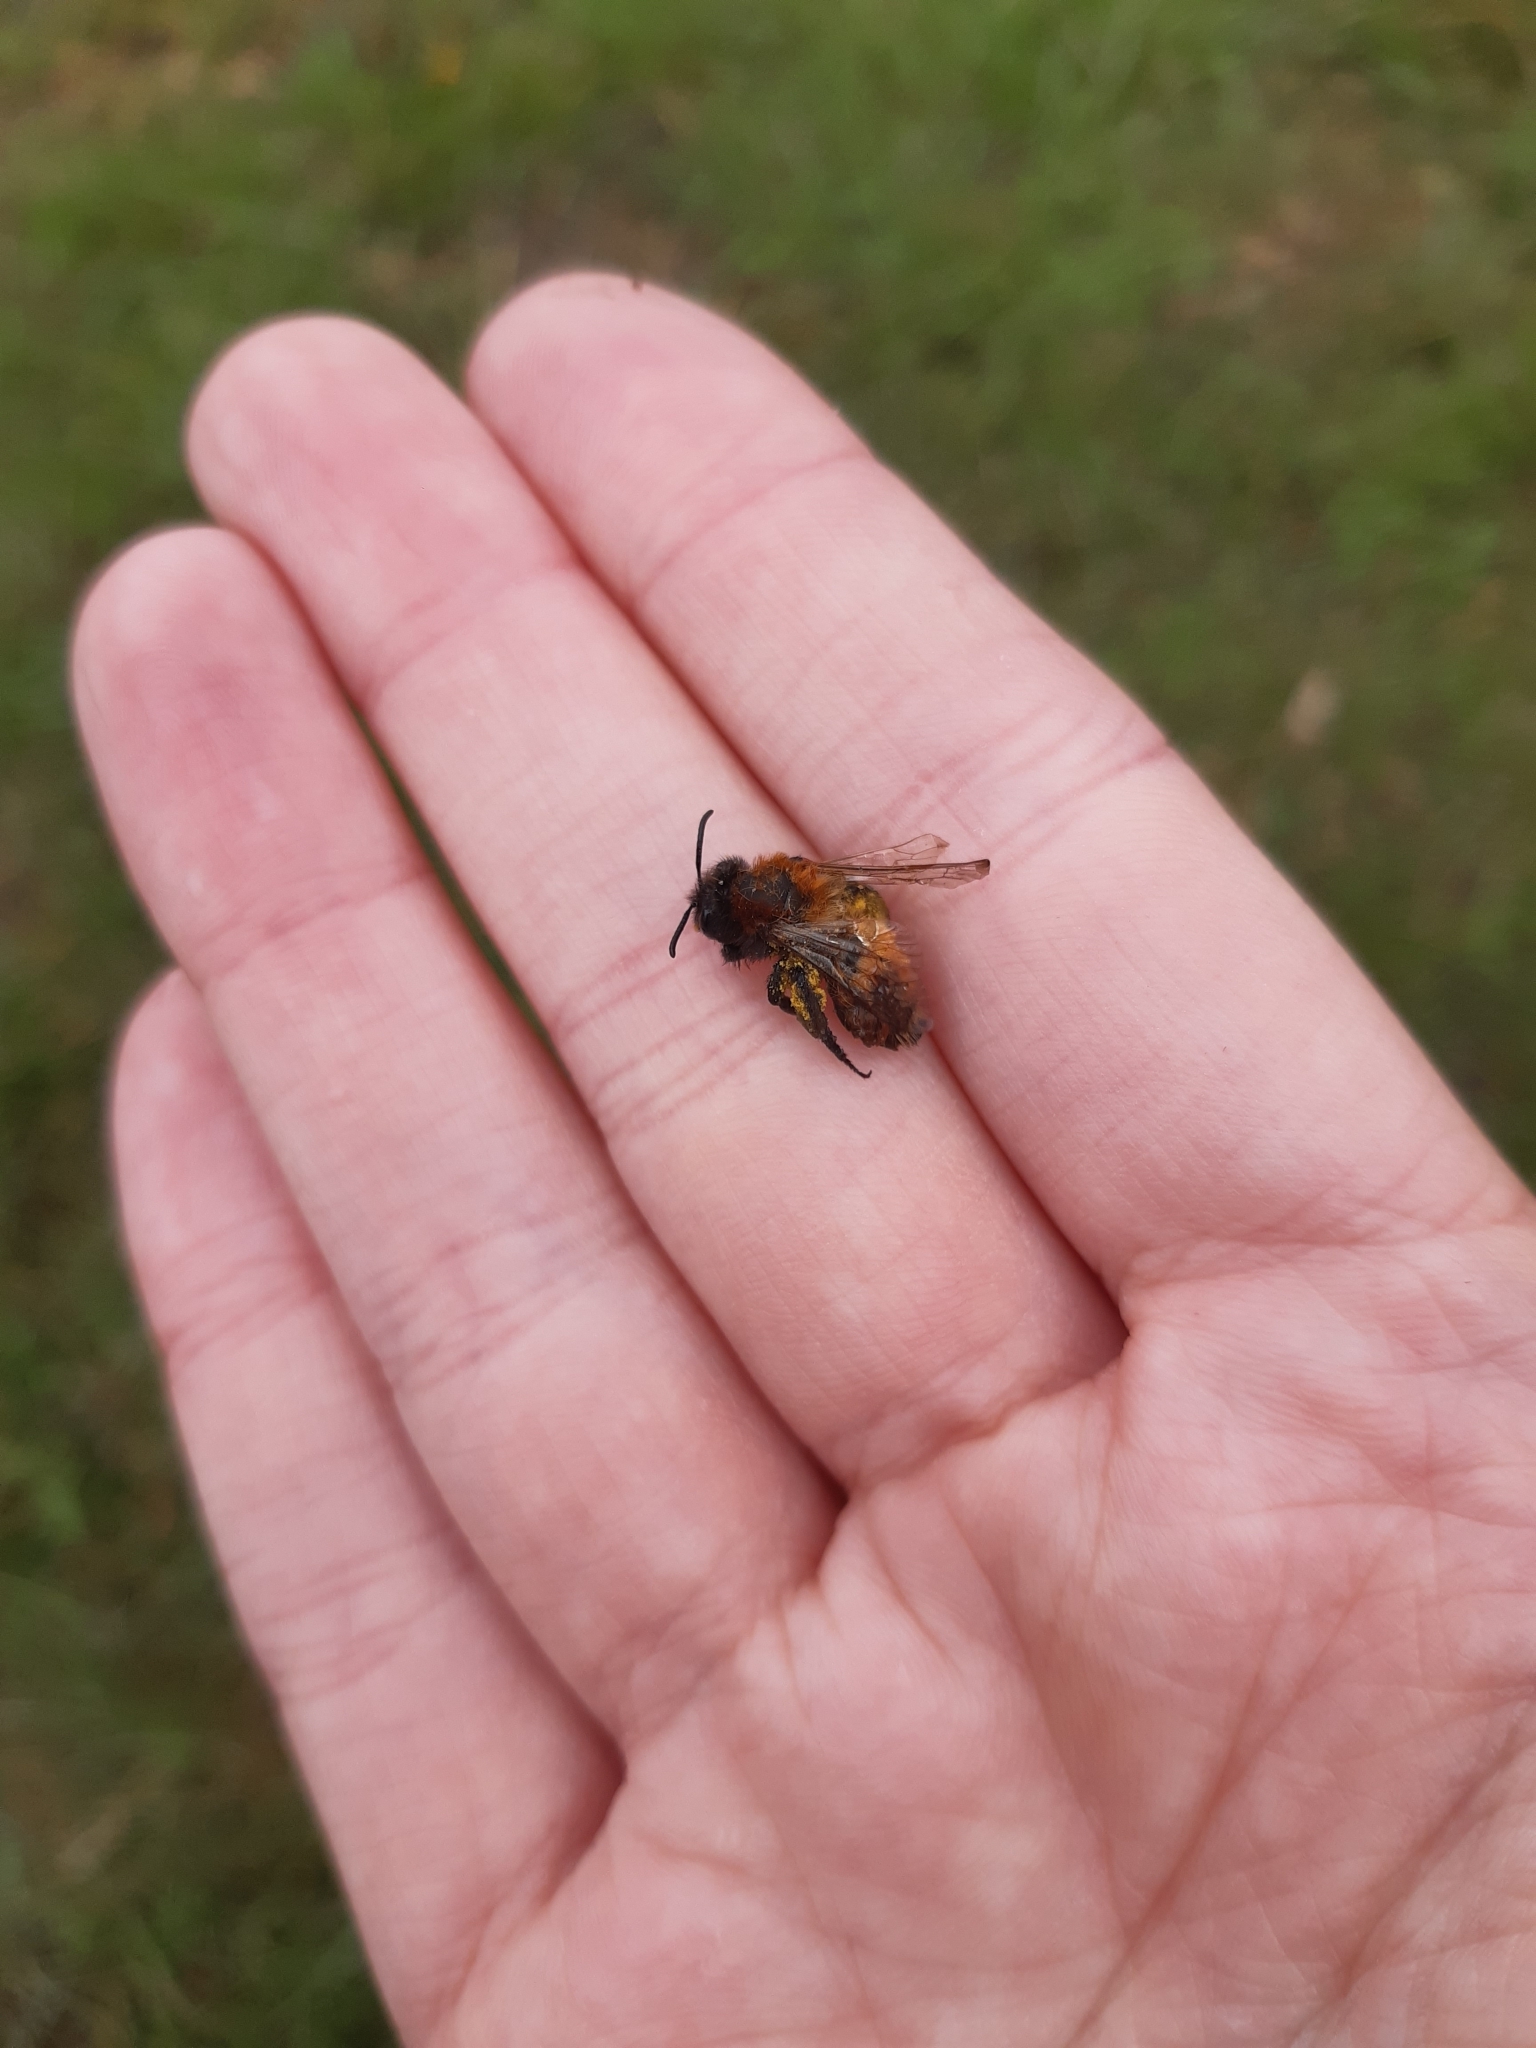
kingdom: Animalia
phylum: Arthropoda
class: Insecta
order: Hymenoptera
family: Andrenidae
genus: Andrena
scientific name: Andrena fulva
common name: Tawny mining bee
